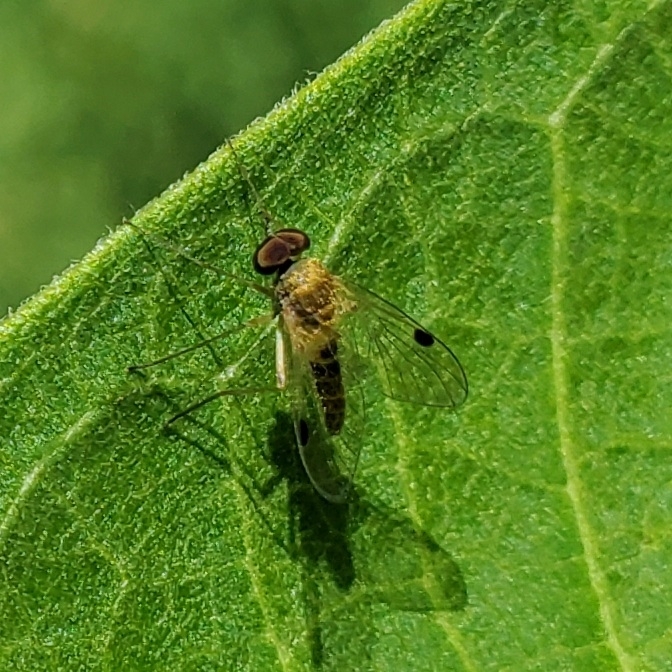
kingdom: Animalia
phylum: Arthropoda
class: Insecta
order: Diptera
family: Rhagionidae
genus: Chrysopilus
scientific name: Chrysopilus modestus
